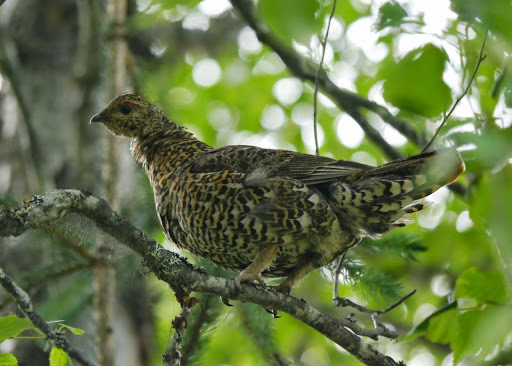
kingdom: Animalia
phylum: Chordata
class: Aves
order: Galliformes
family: Phasianidae
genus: Canachites
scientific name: Canachites canadensis
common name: Spruce grouse
